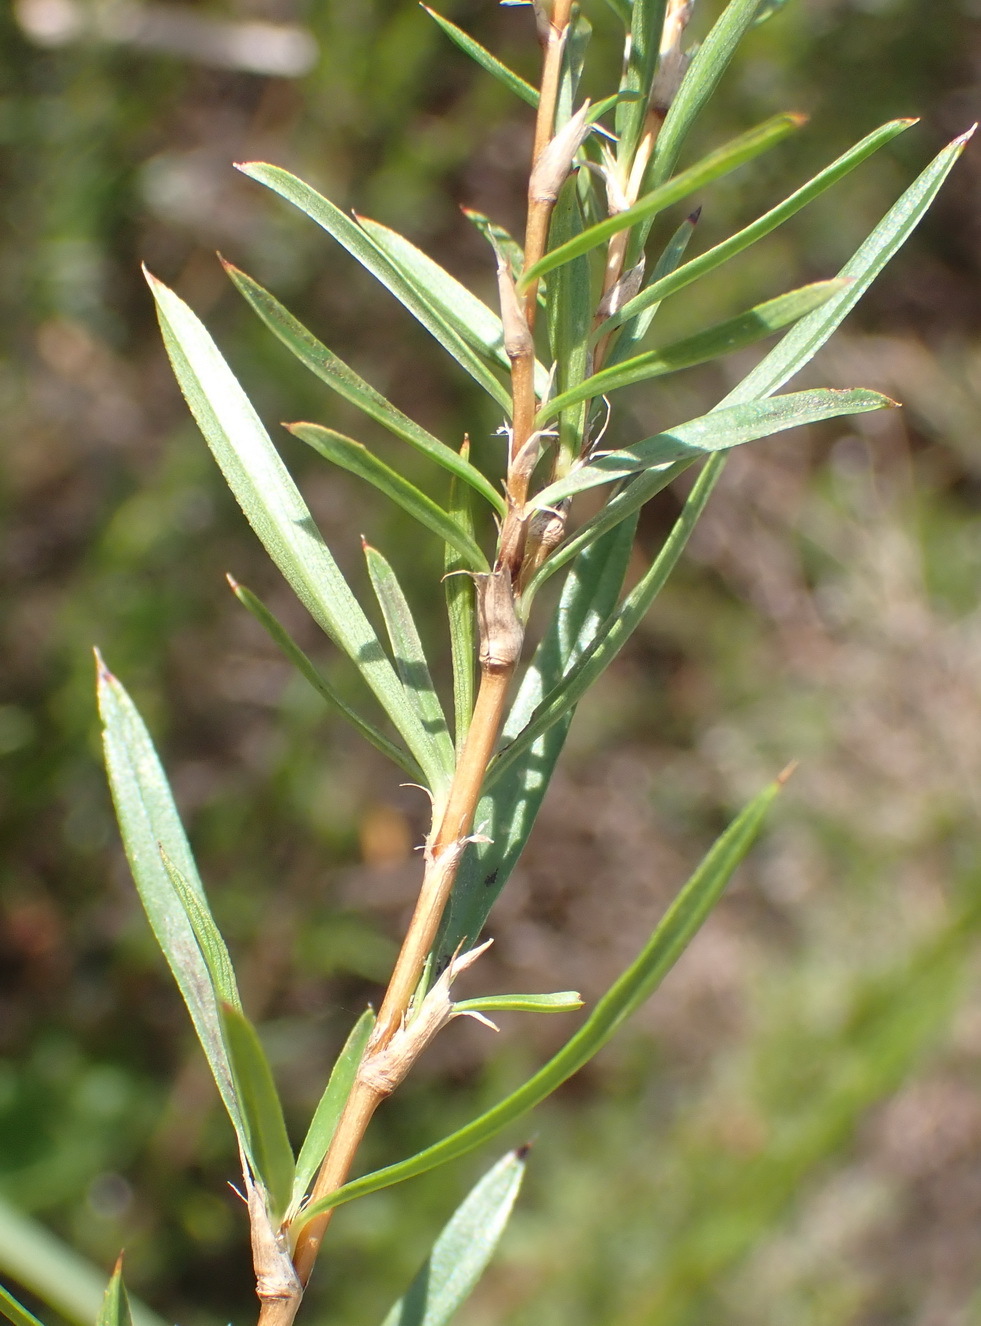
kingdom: Plantae
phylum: Tracheophyta
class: Magnoliopsida
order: Rosales
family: Rosaceae
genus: Cliffortia
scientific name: Cliffortia strobilifera
